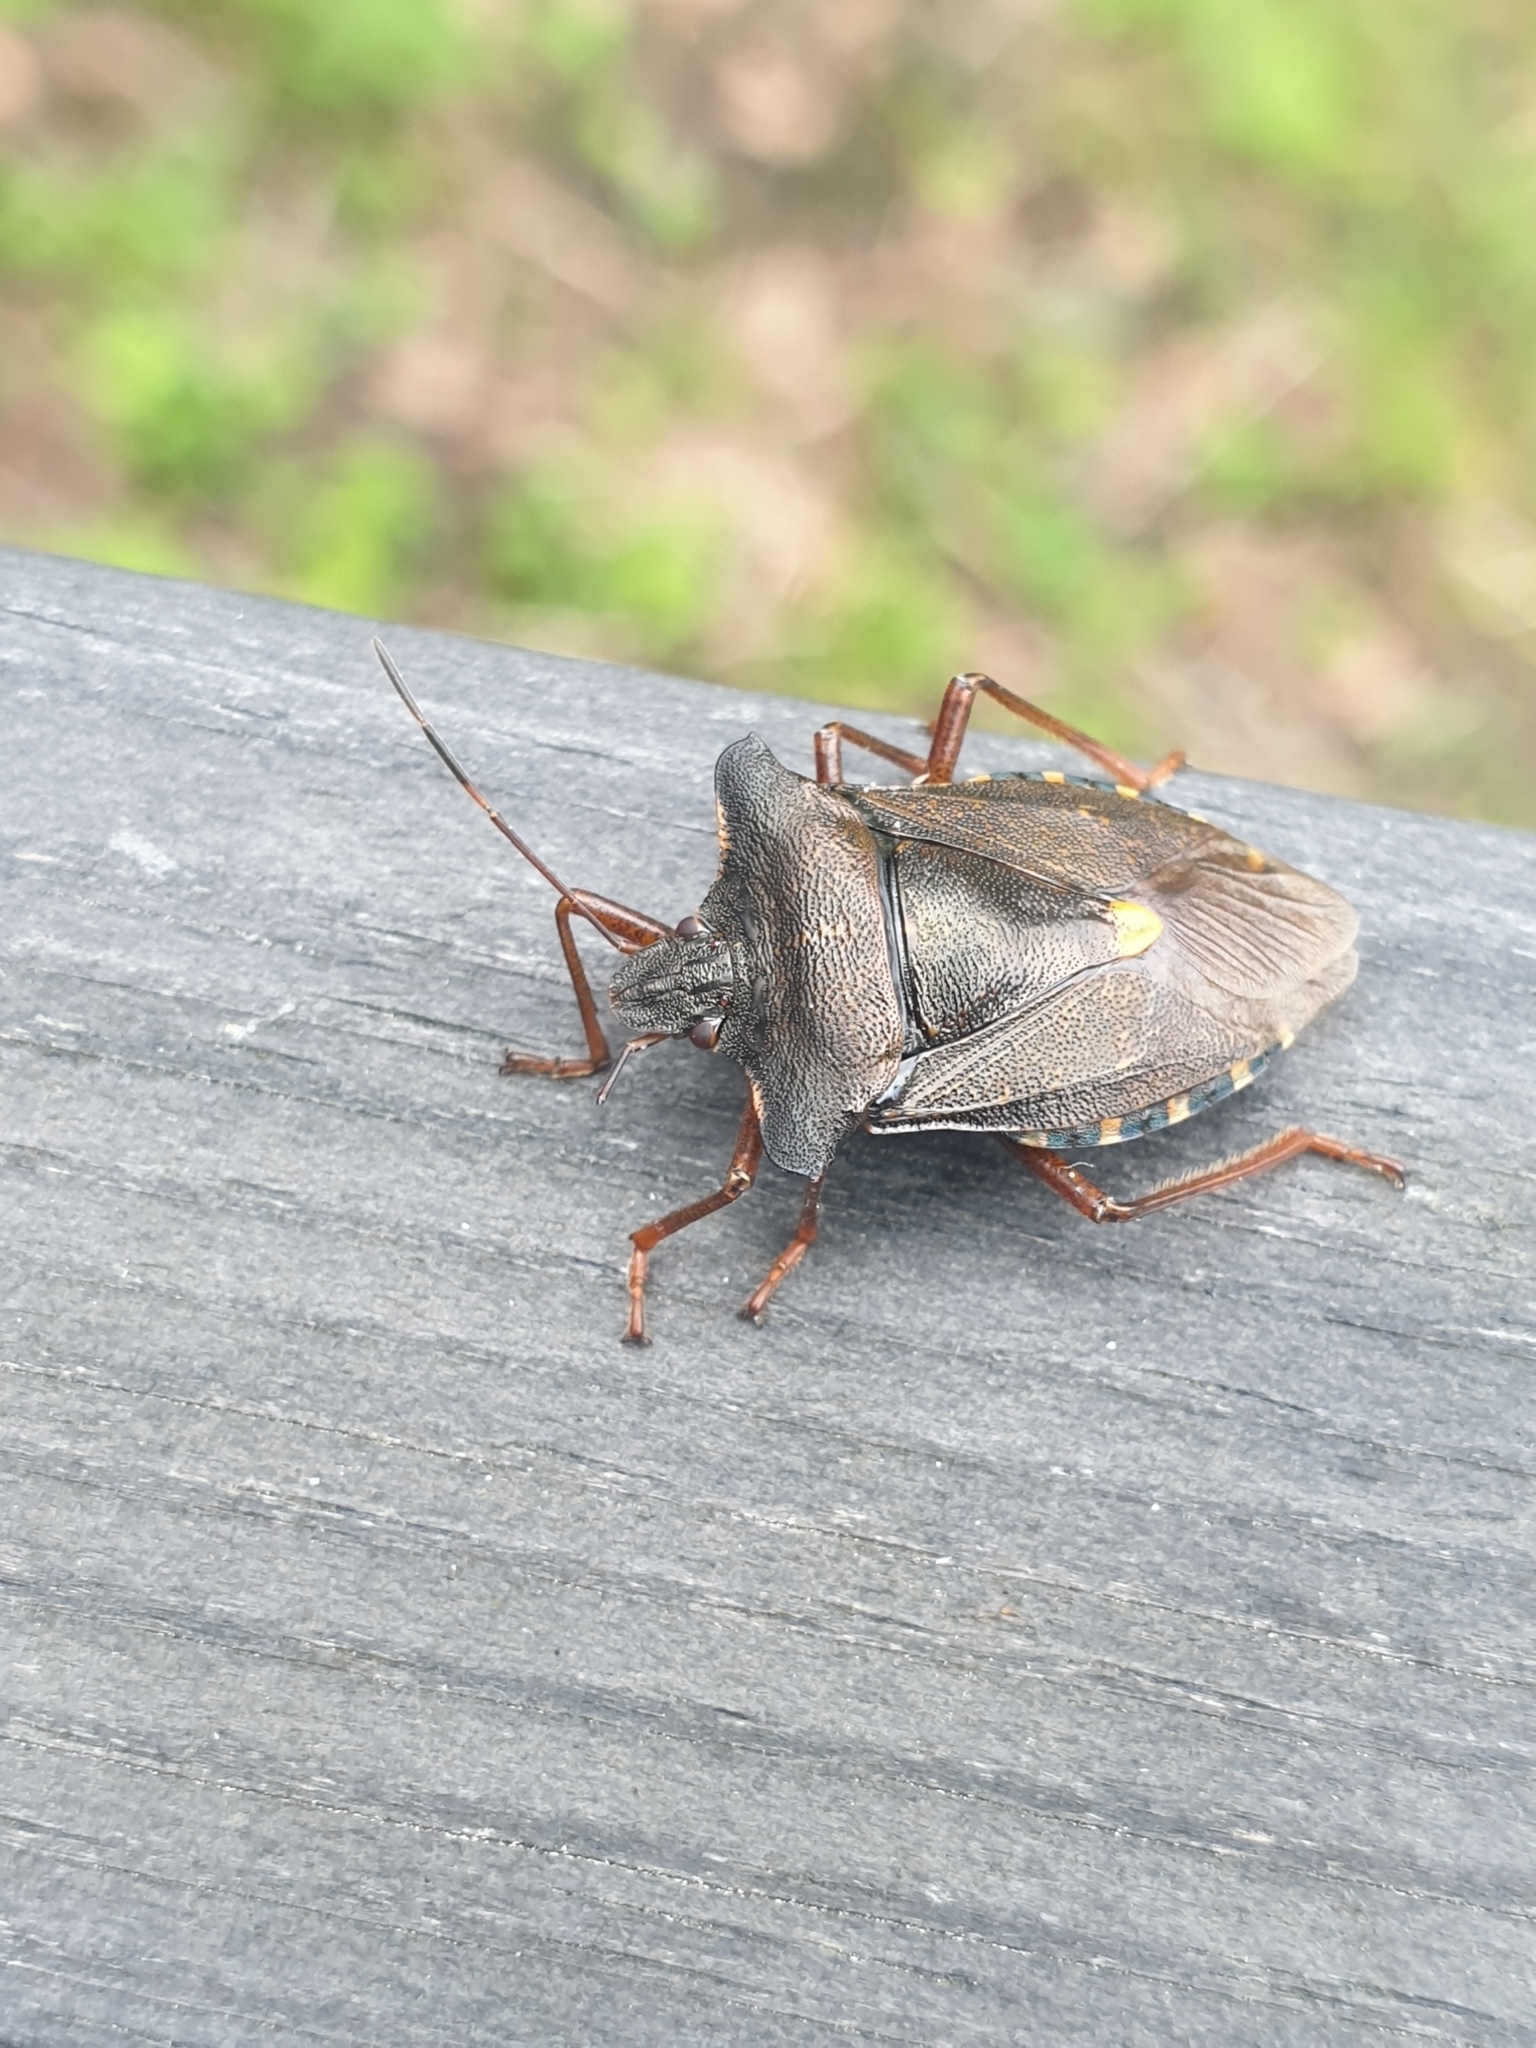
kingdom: Animalia
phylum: Arthropoda
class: Insecta
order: Hemiptera
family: Pentatomidae
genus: Pentatoma
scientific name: Pentatoma rufipes
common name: Forest bug
